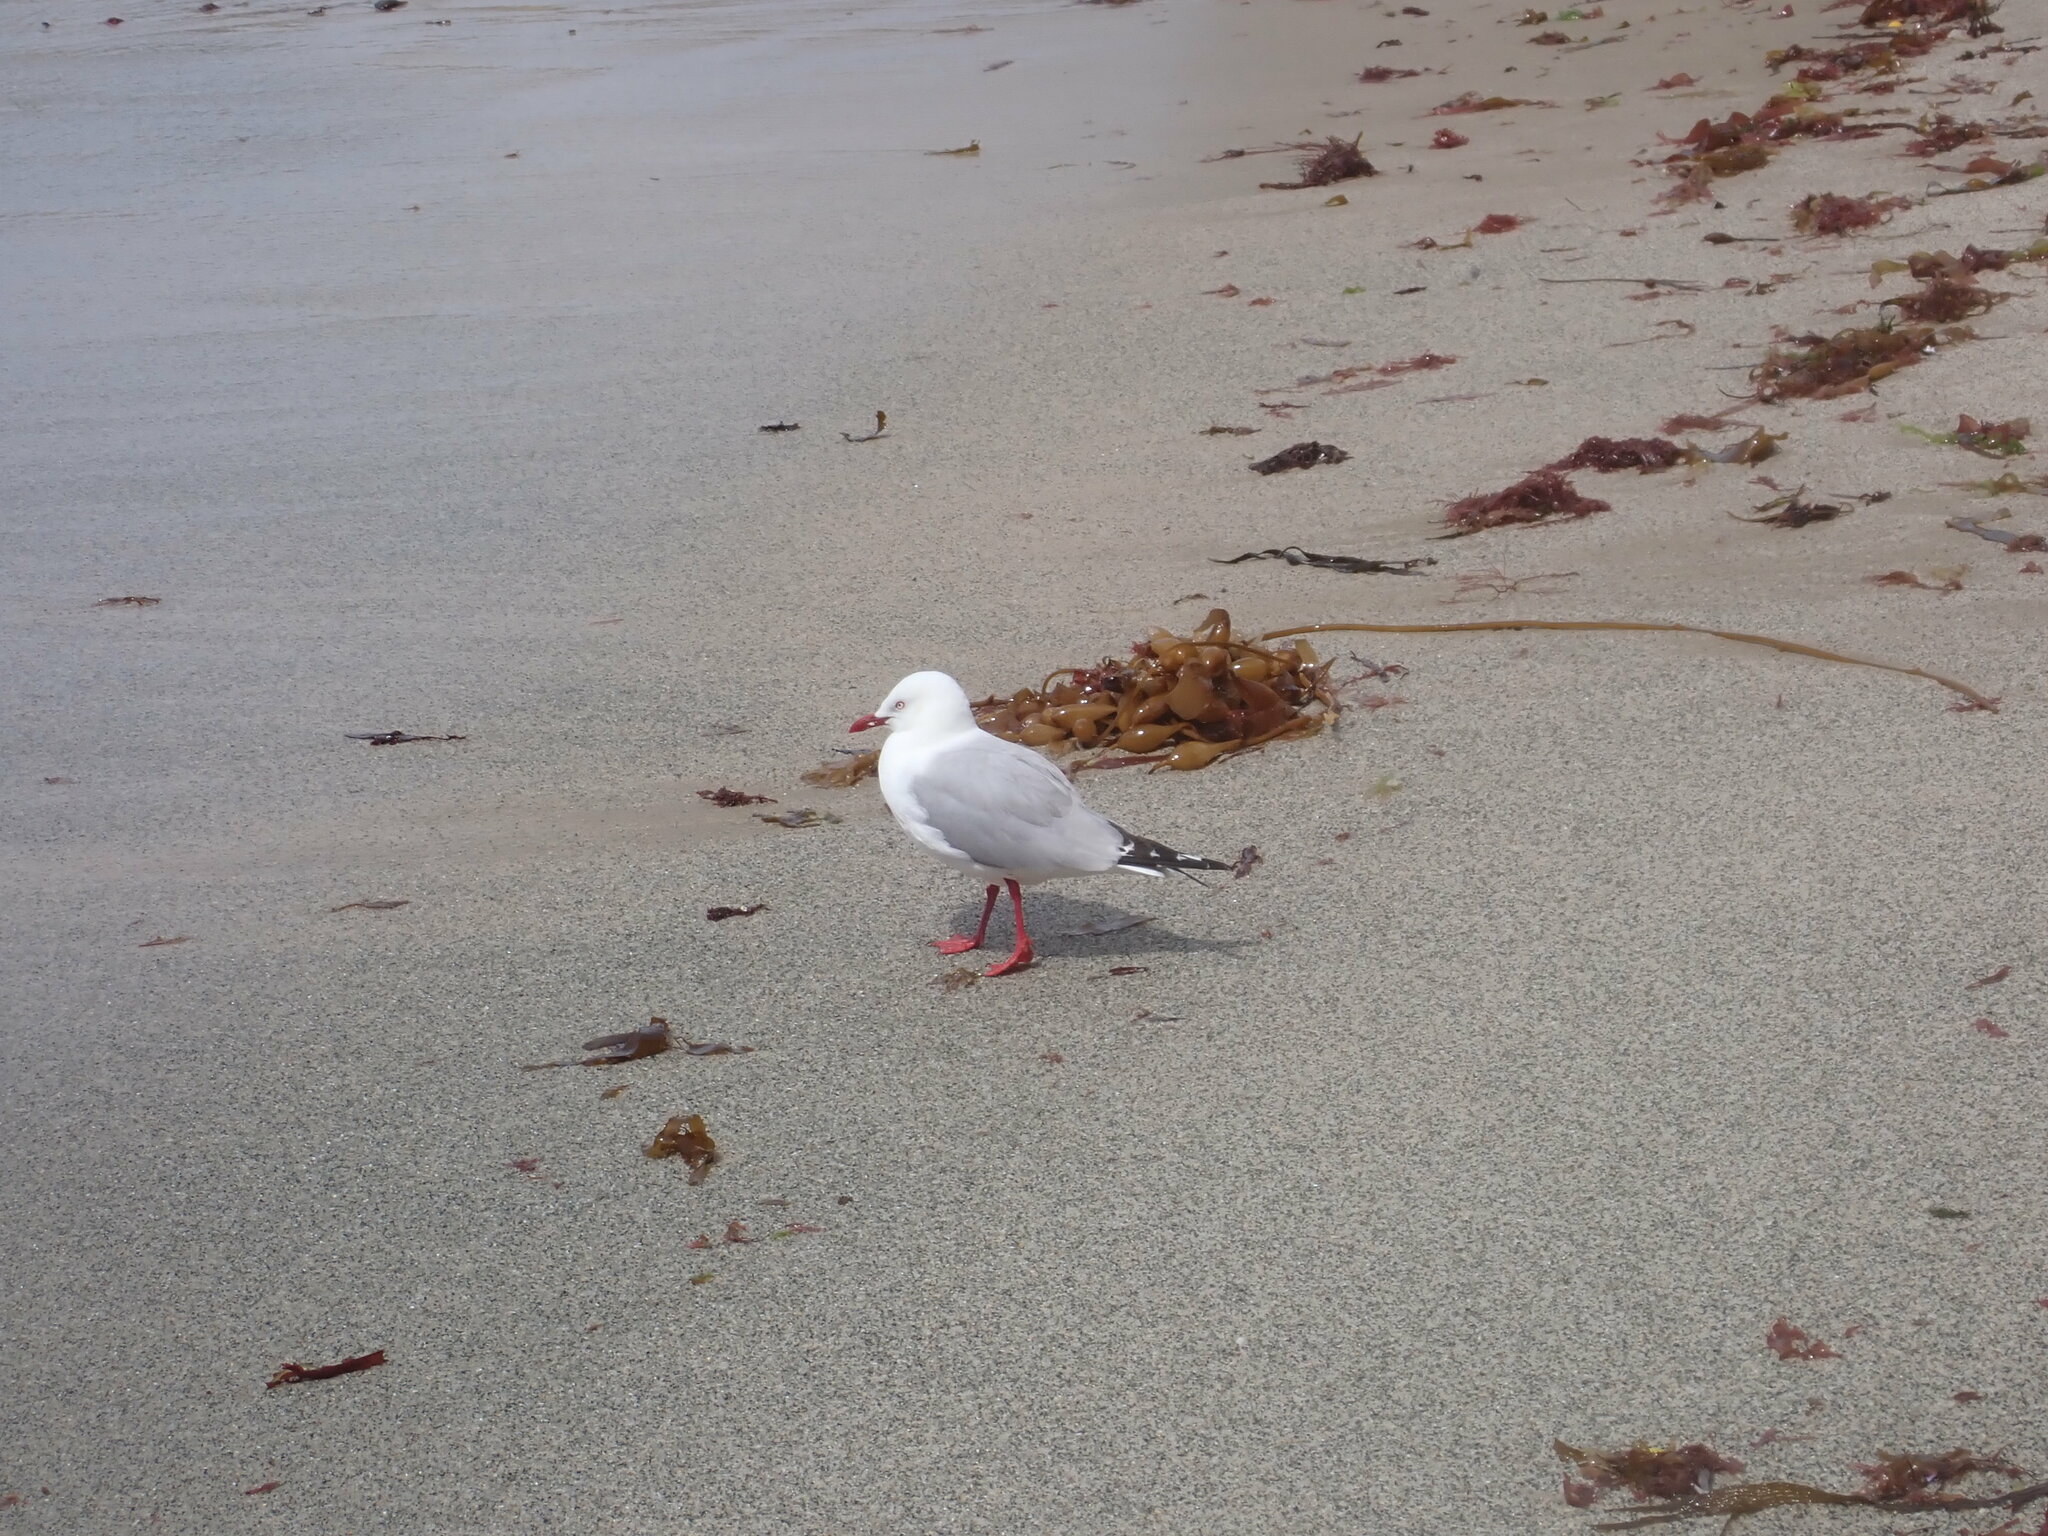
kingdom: Animalia
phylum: Chordata
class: Aves
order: Charadriiformes
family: Laridae
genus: Chroicocephalus
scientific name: Chroicocephalus novaehollandiae
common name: Silver gull
